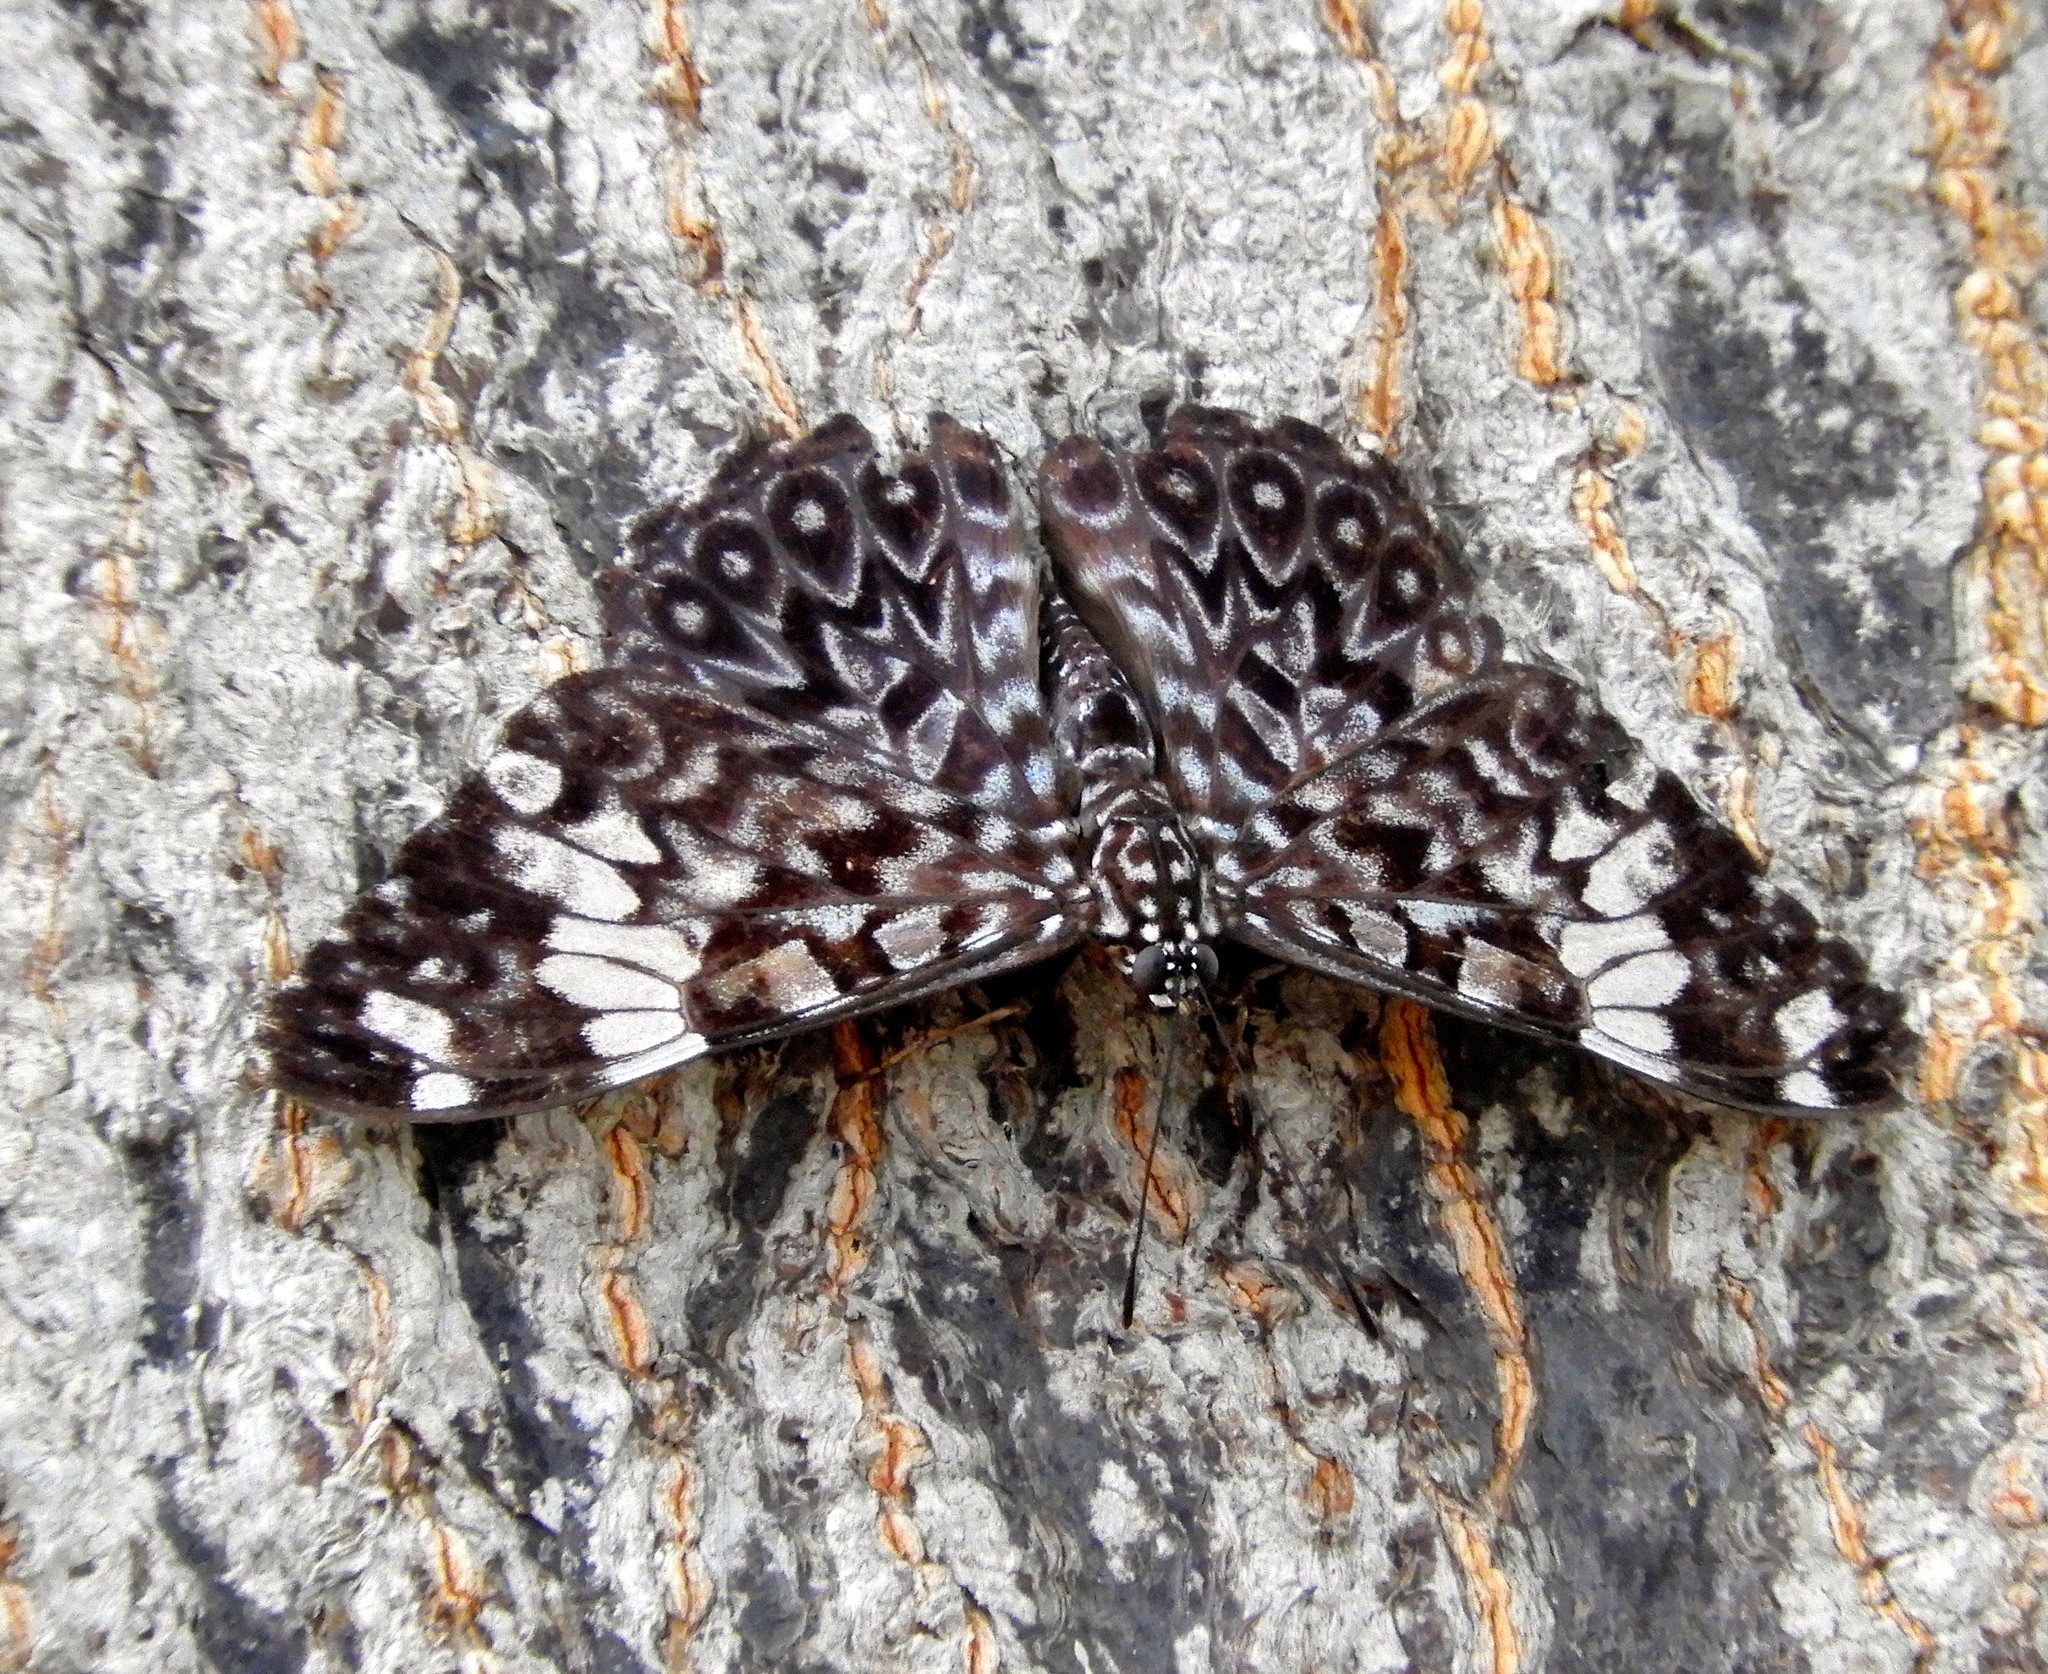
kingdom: Animalia
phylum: Arthropoda
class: Insecta
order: Lepidoptera
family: Nymphalidae
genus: Hamadryas
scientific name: Hamadryas amphinome
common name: Red cracker
